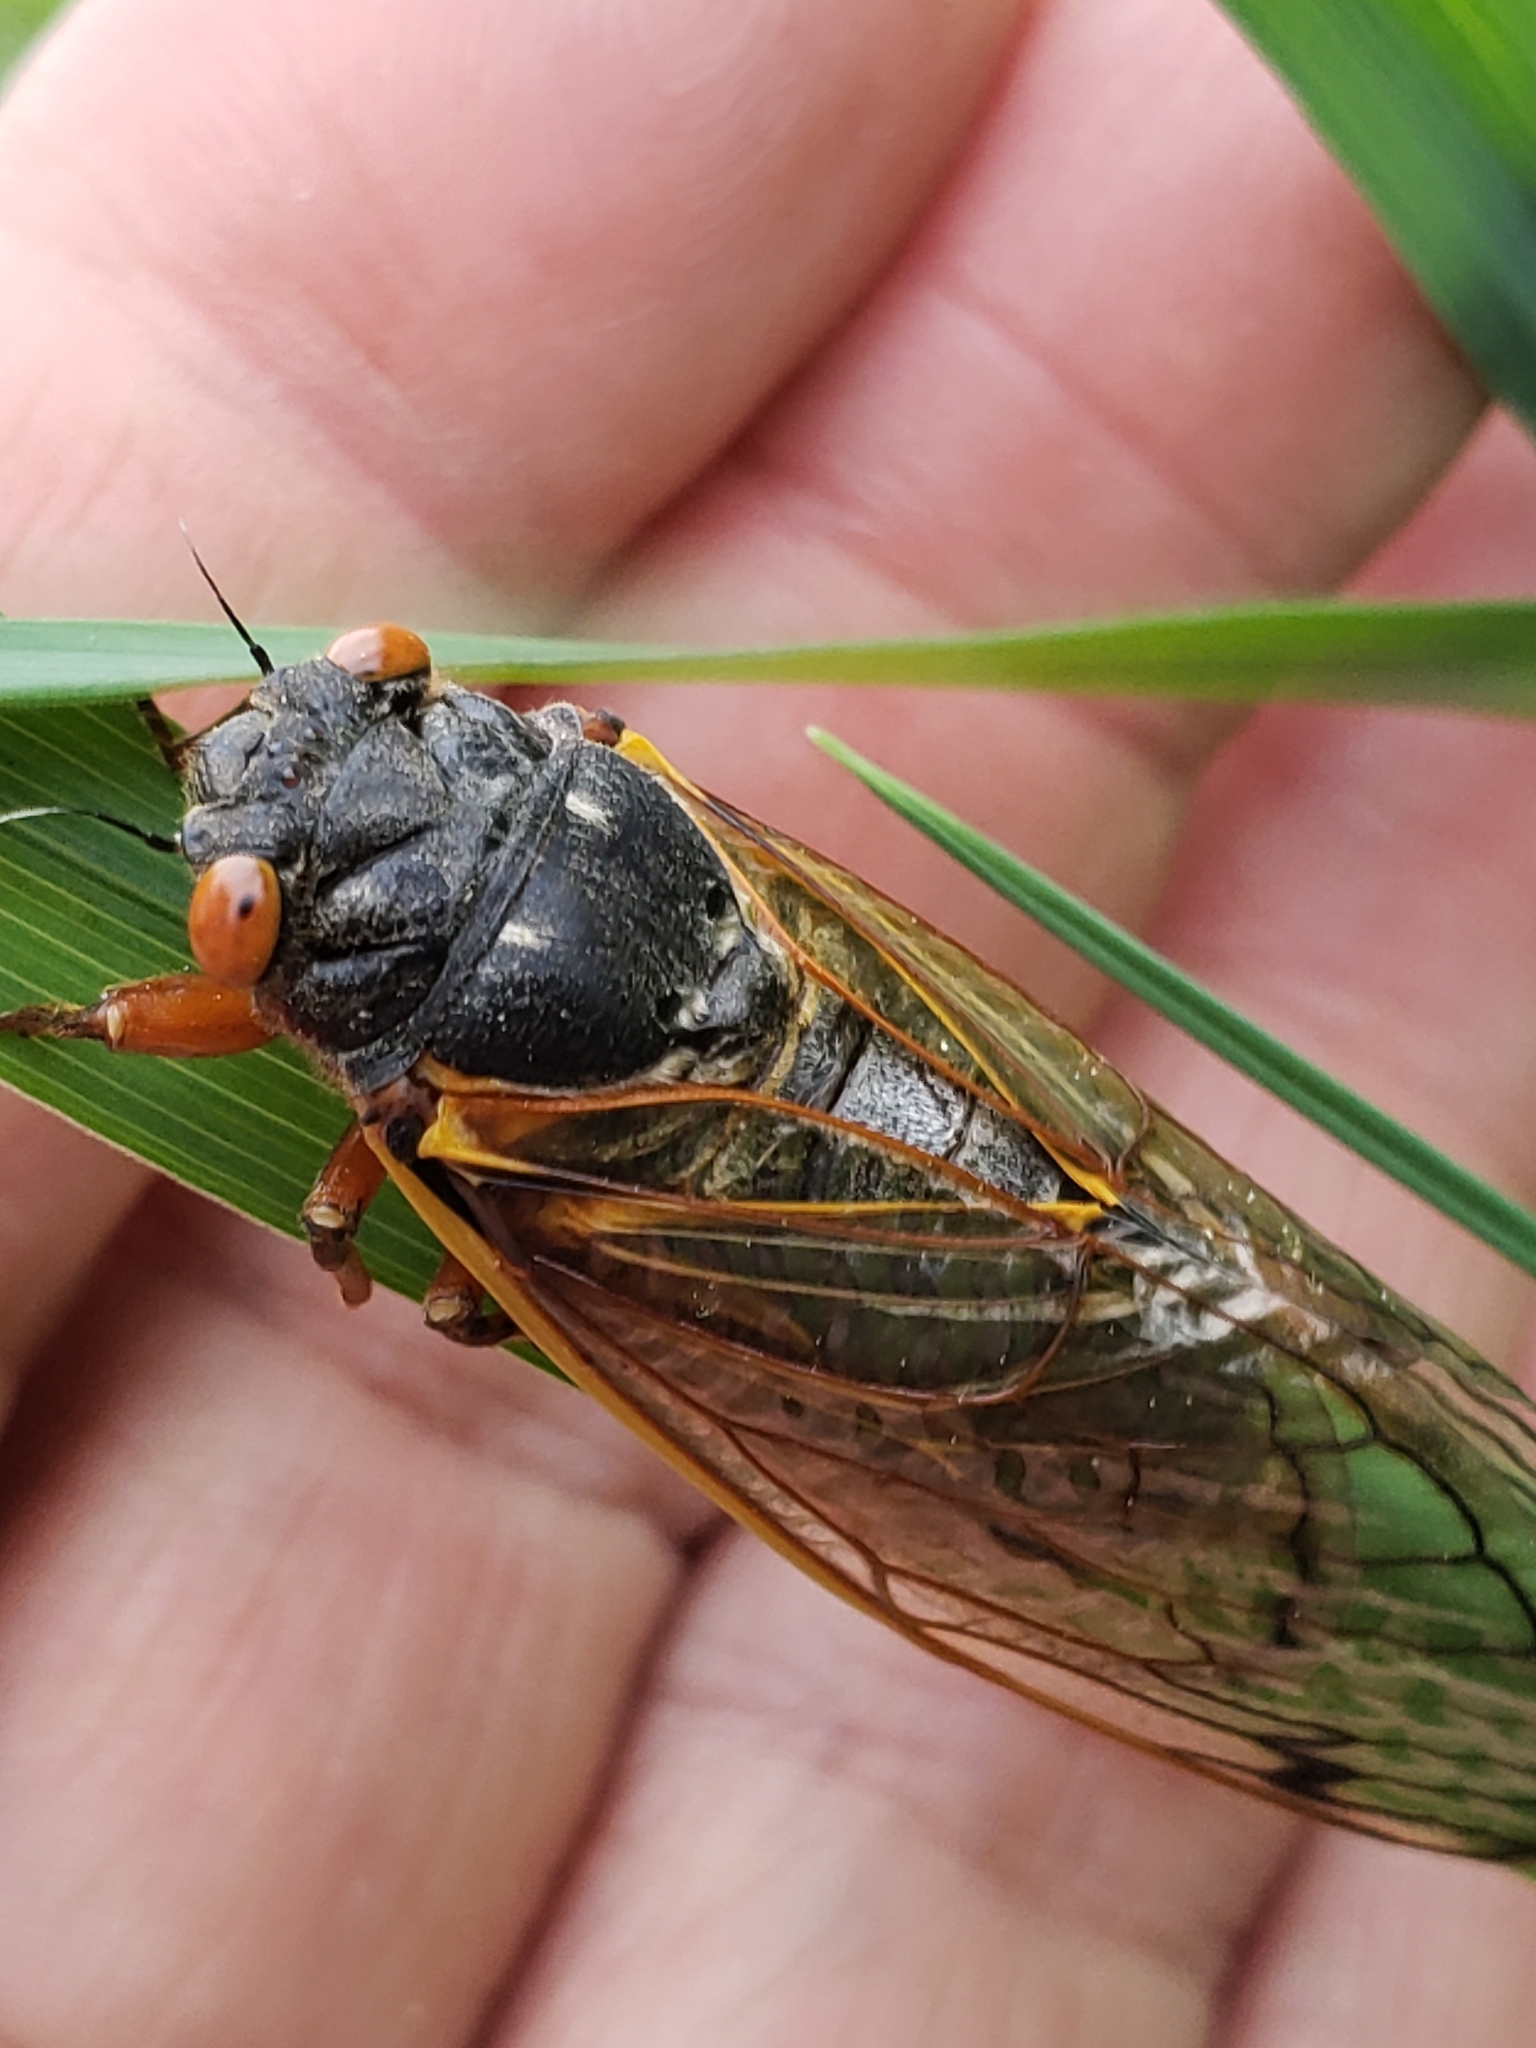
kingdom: Animalia
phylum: Arthropoda
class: Insecta
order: Hemiptera
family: Cicadidae
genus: Magicicada
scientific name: Magicicada septendecim
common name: Periodical cicada
